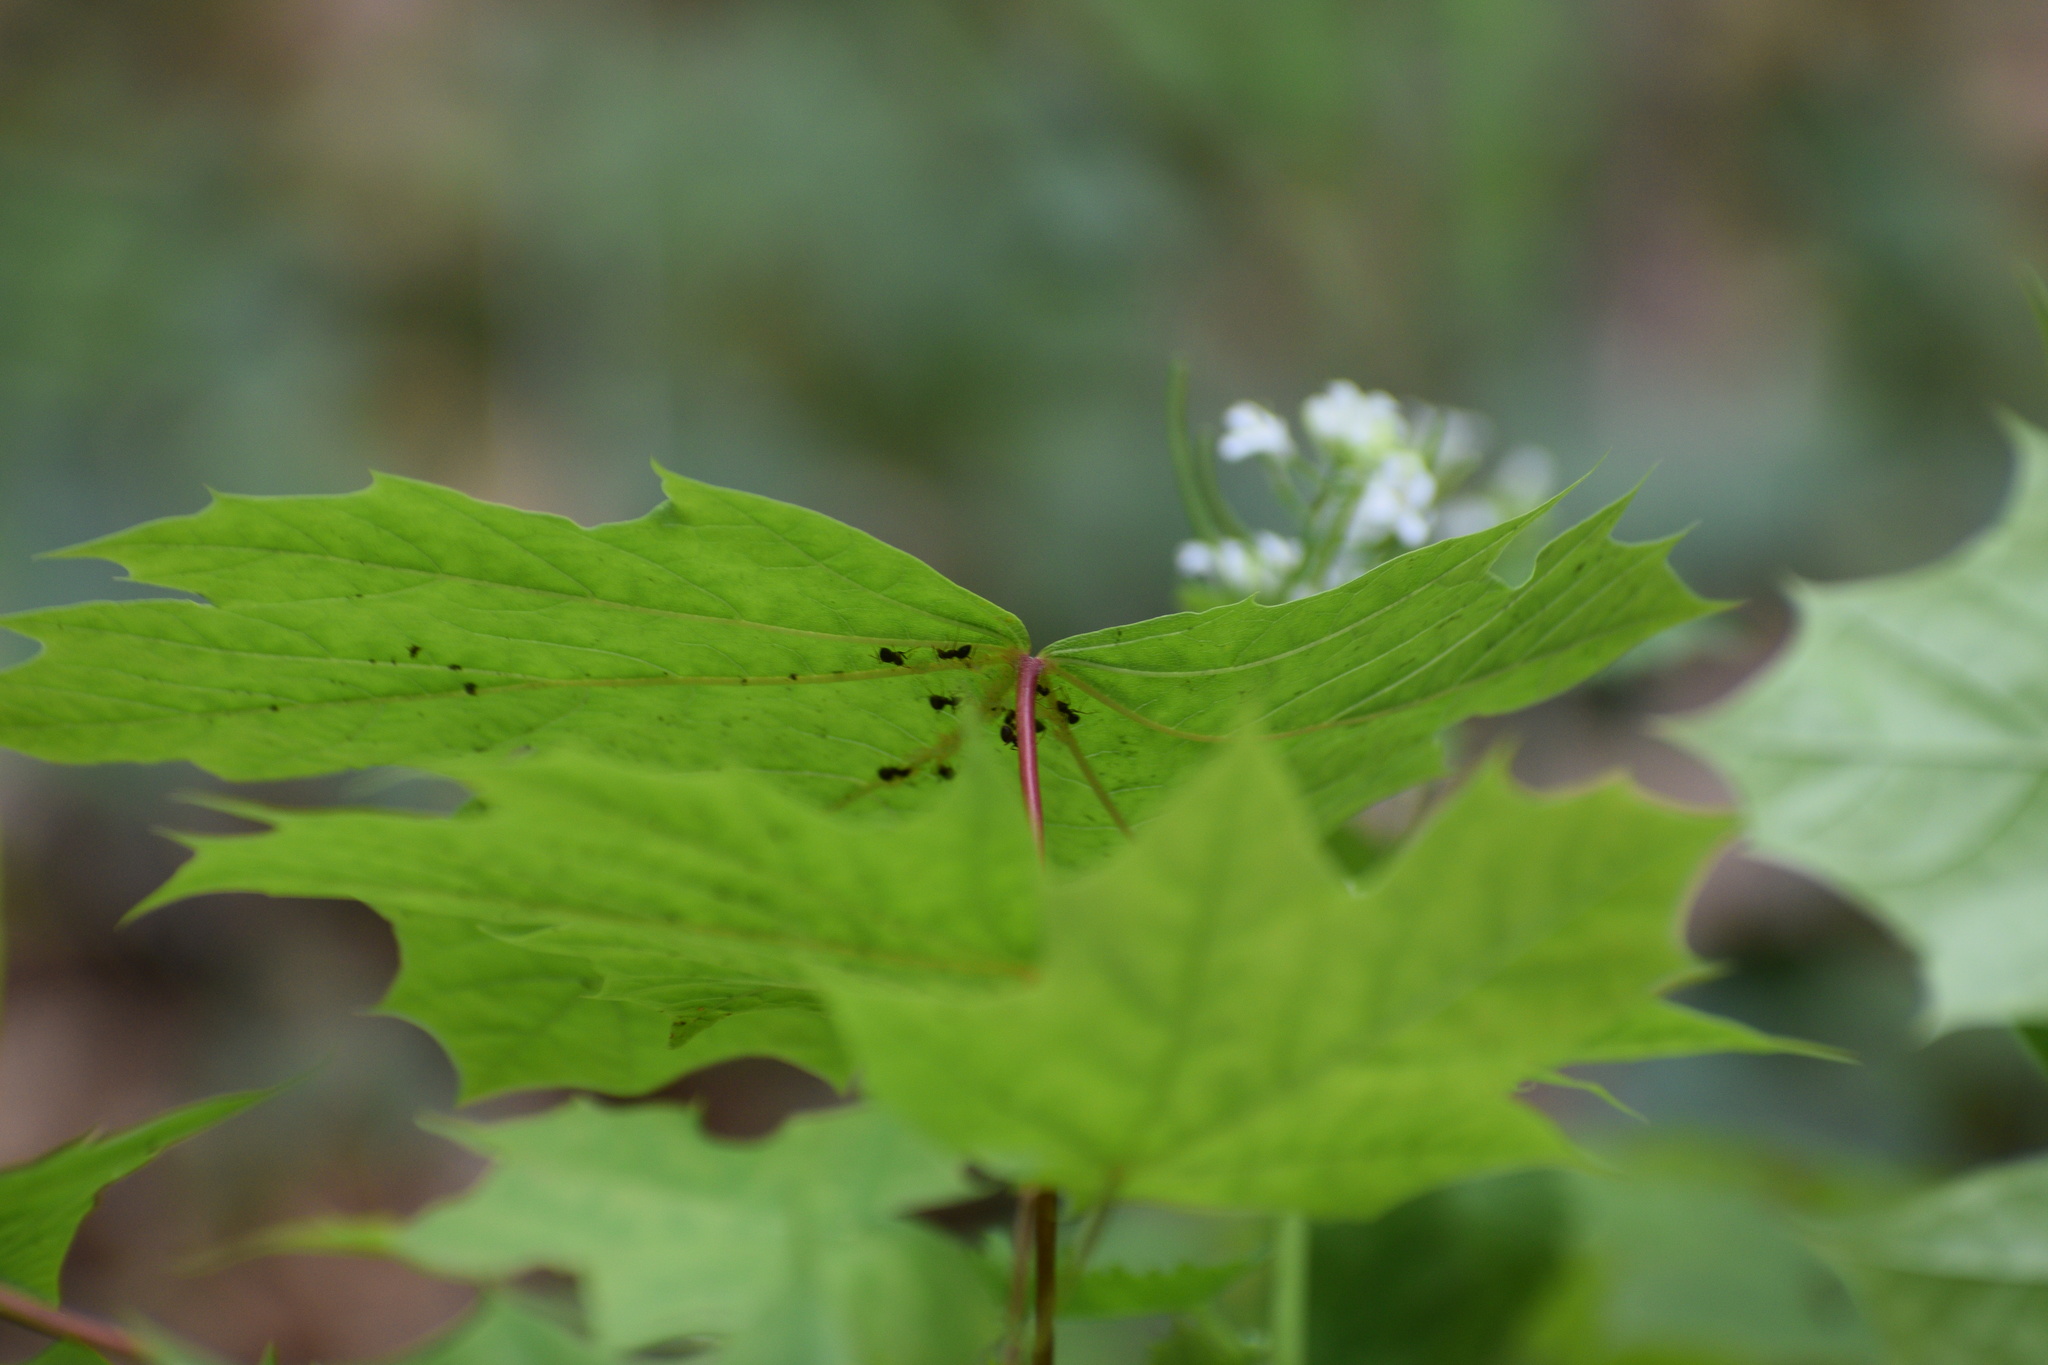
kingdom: Animalia
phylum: Arthropoda
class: Insecta
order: Hymenoptera
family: Formicidae
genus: Prenolepis
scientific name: Prenolepis imparis
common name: Small honey ant
